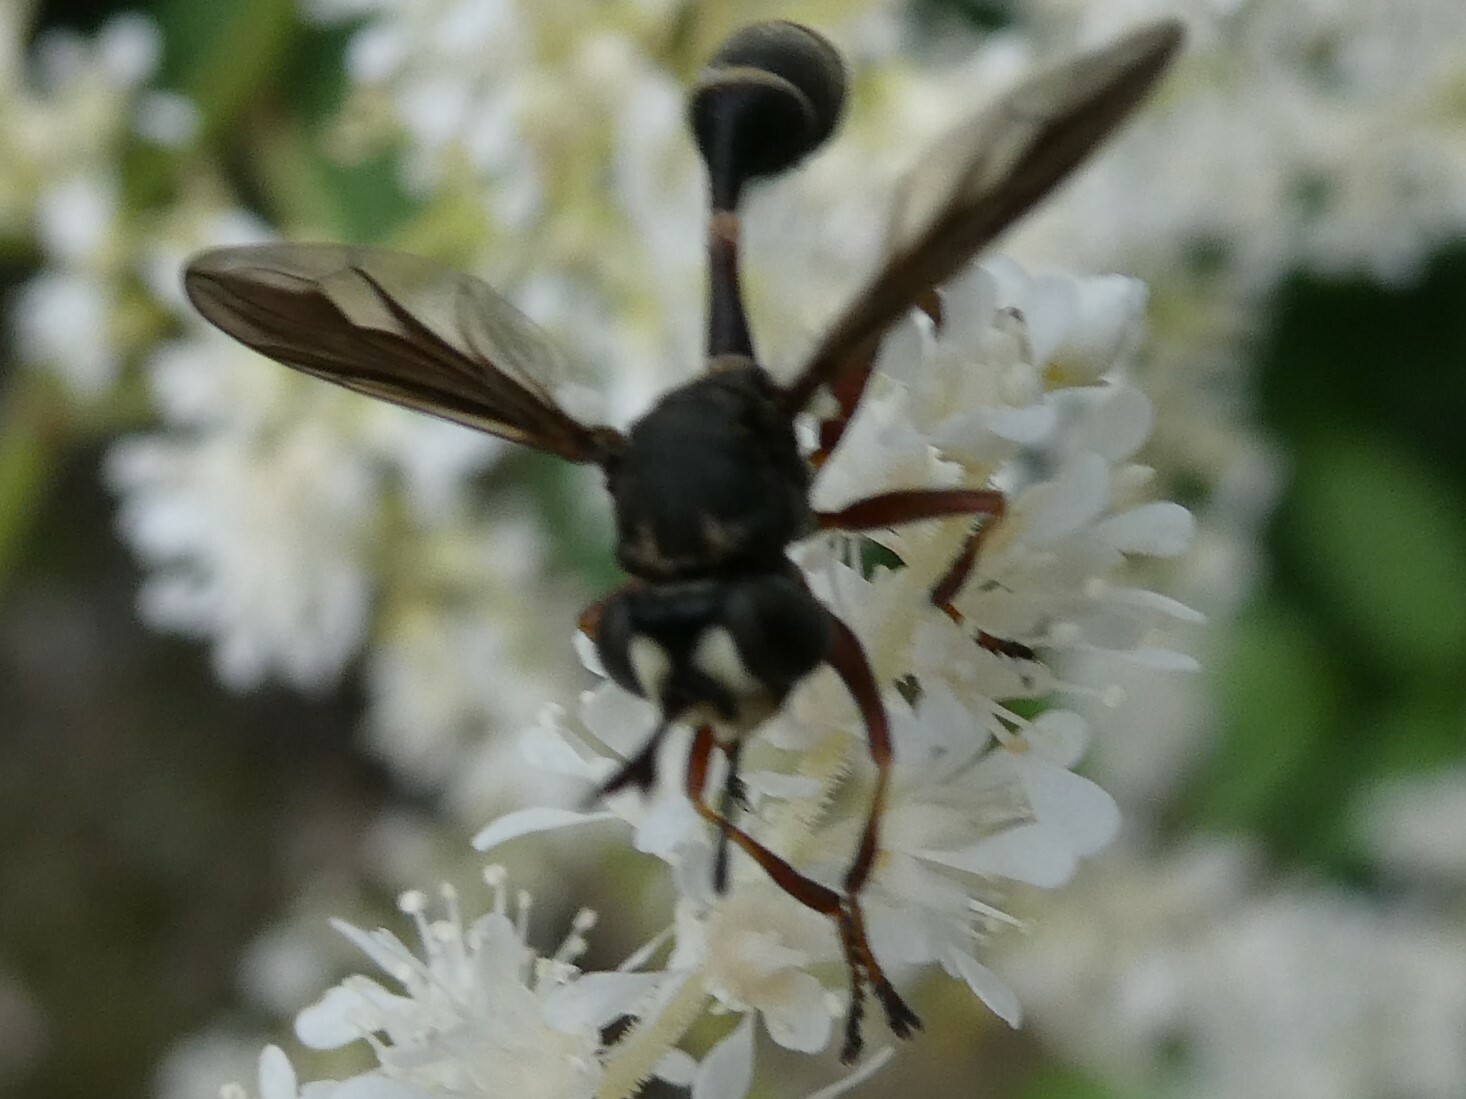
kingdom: Animalia
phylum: Arthropoda
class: Insecta
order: Diptera
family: Conopidae
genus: Physocephala
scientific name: Physocephala furcillata
